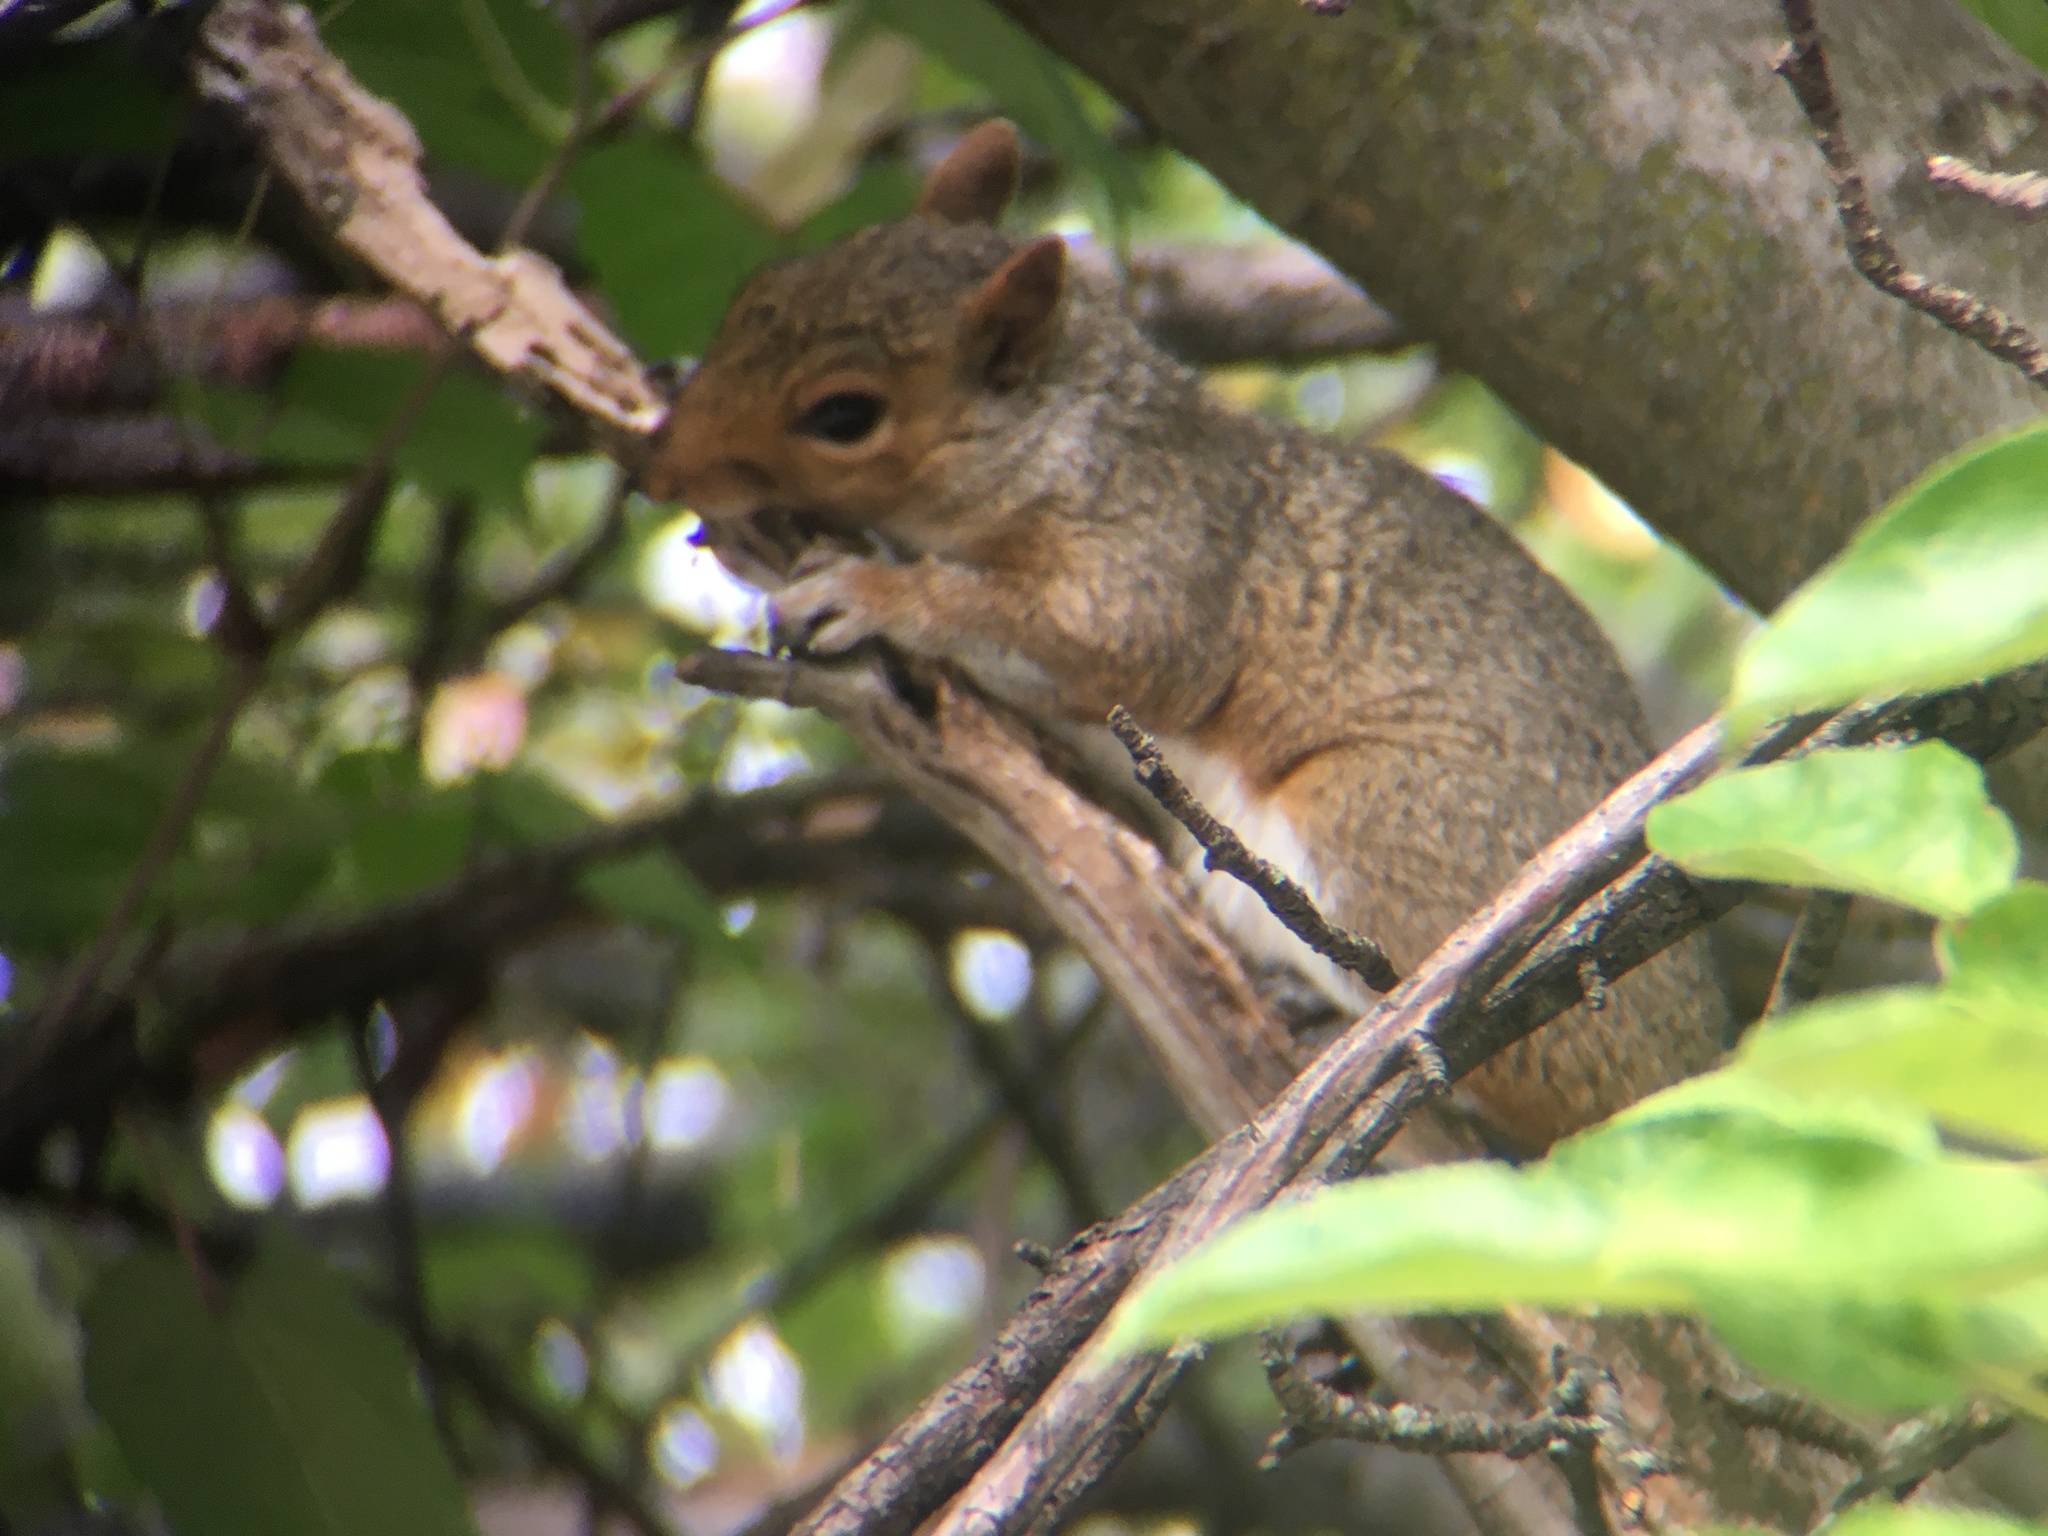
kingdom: Animalia
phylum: Chordata
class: Mammalia
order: Rodentia
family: Sciuridae
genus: Sciurus
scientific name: Sciurus carolinensis
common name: Eastern gray squirrel
